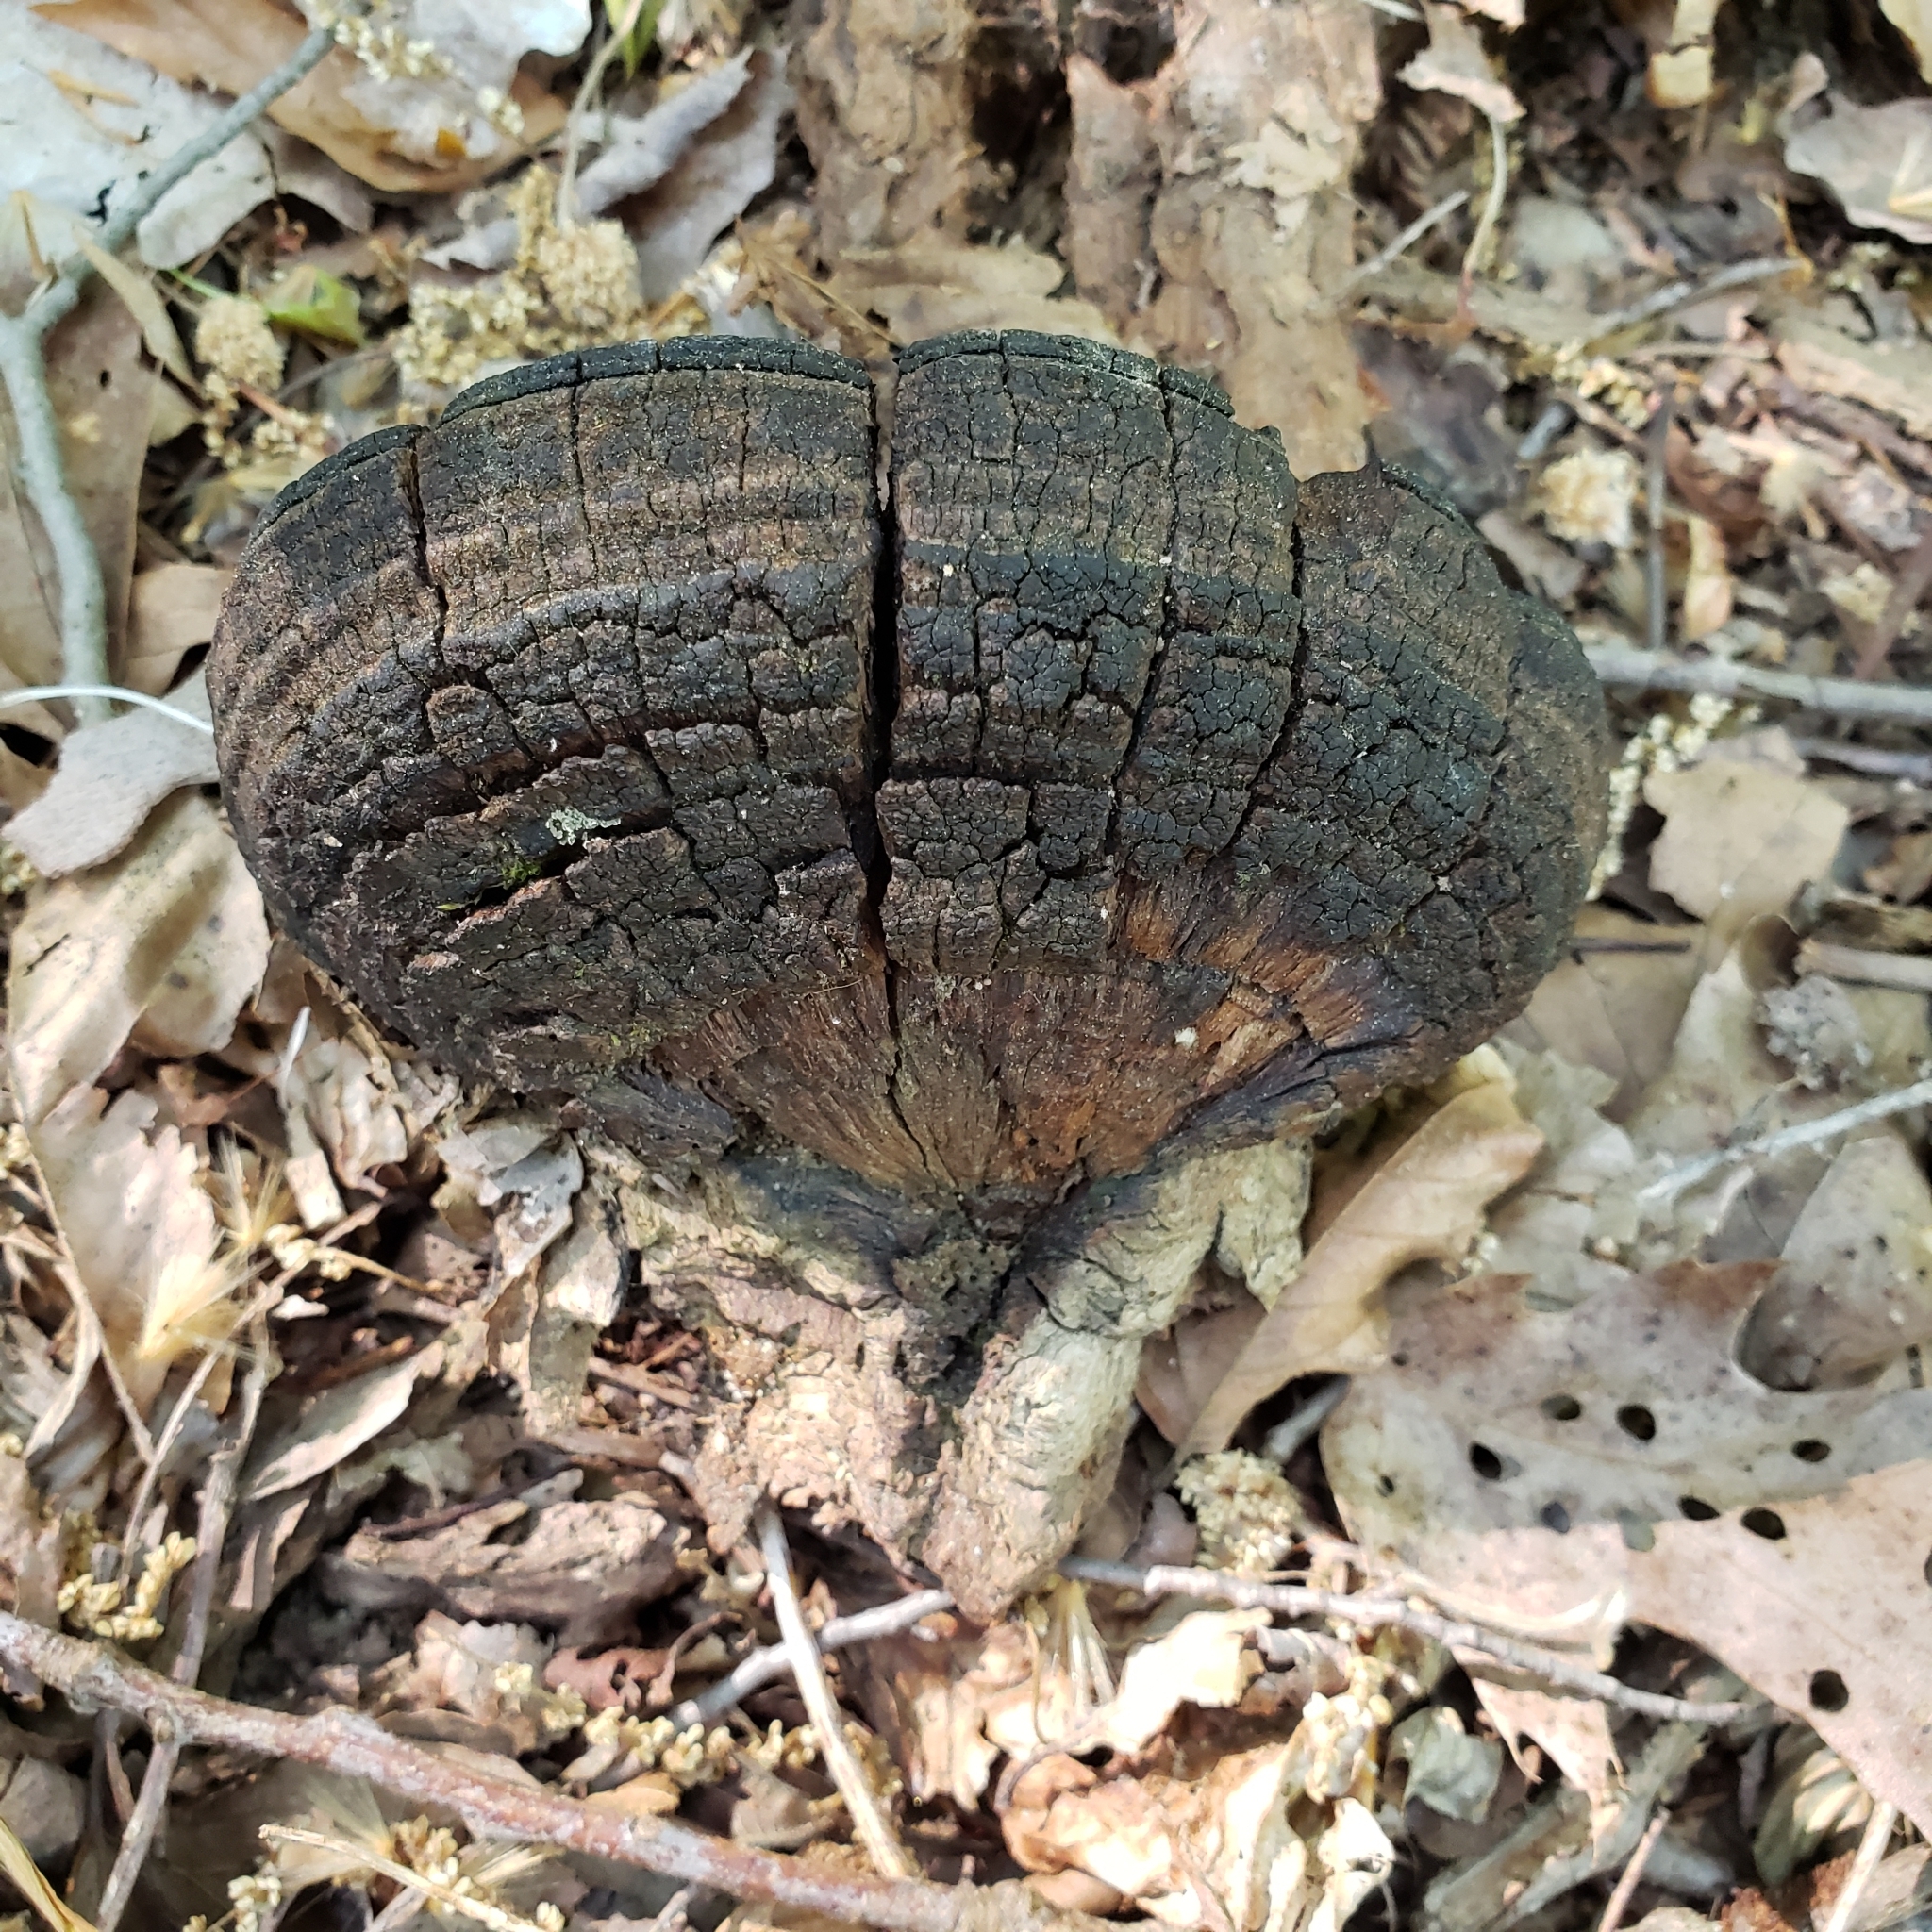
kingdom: Fungi
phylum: Basidiomycota
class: Agaricomycetes
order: Hymenochaetales
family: Hymenochaetaceae
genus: Phellinus
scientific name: Phellinus robiniae
